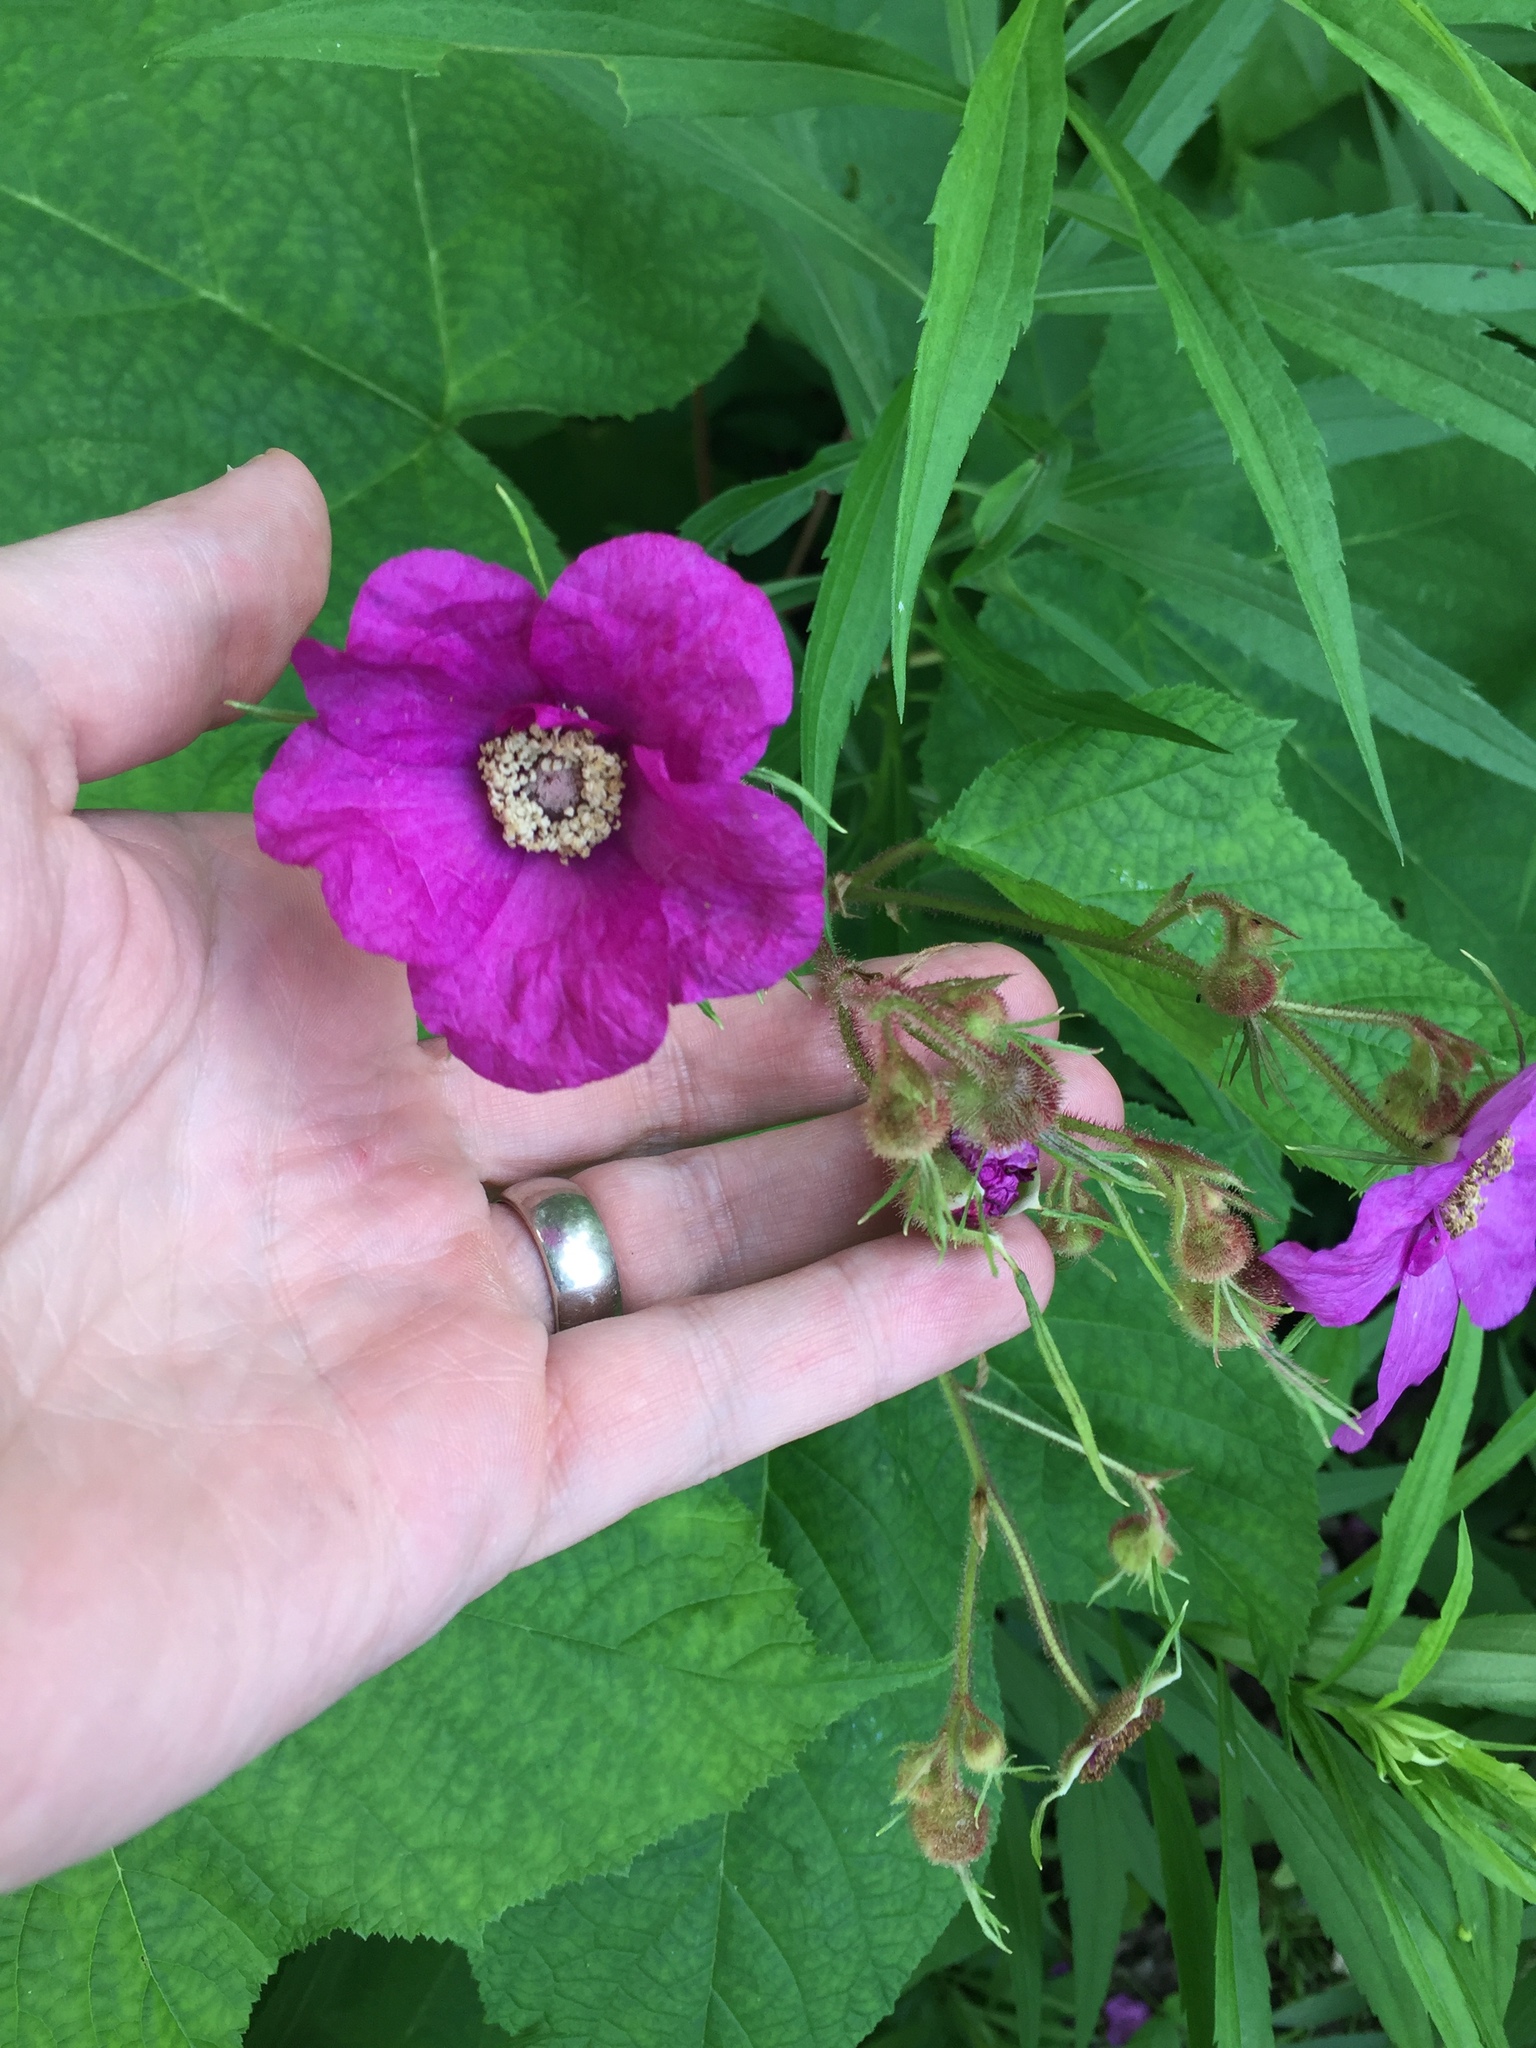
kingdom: Plantae
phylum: Tracheophyta
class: Magnoliopsida
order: Rosales
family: Rosaceae
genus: Rubus
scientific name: Rubus odoratus
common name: Purple-flowered raspberry
